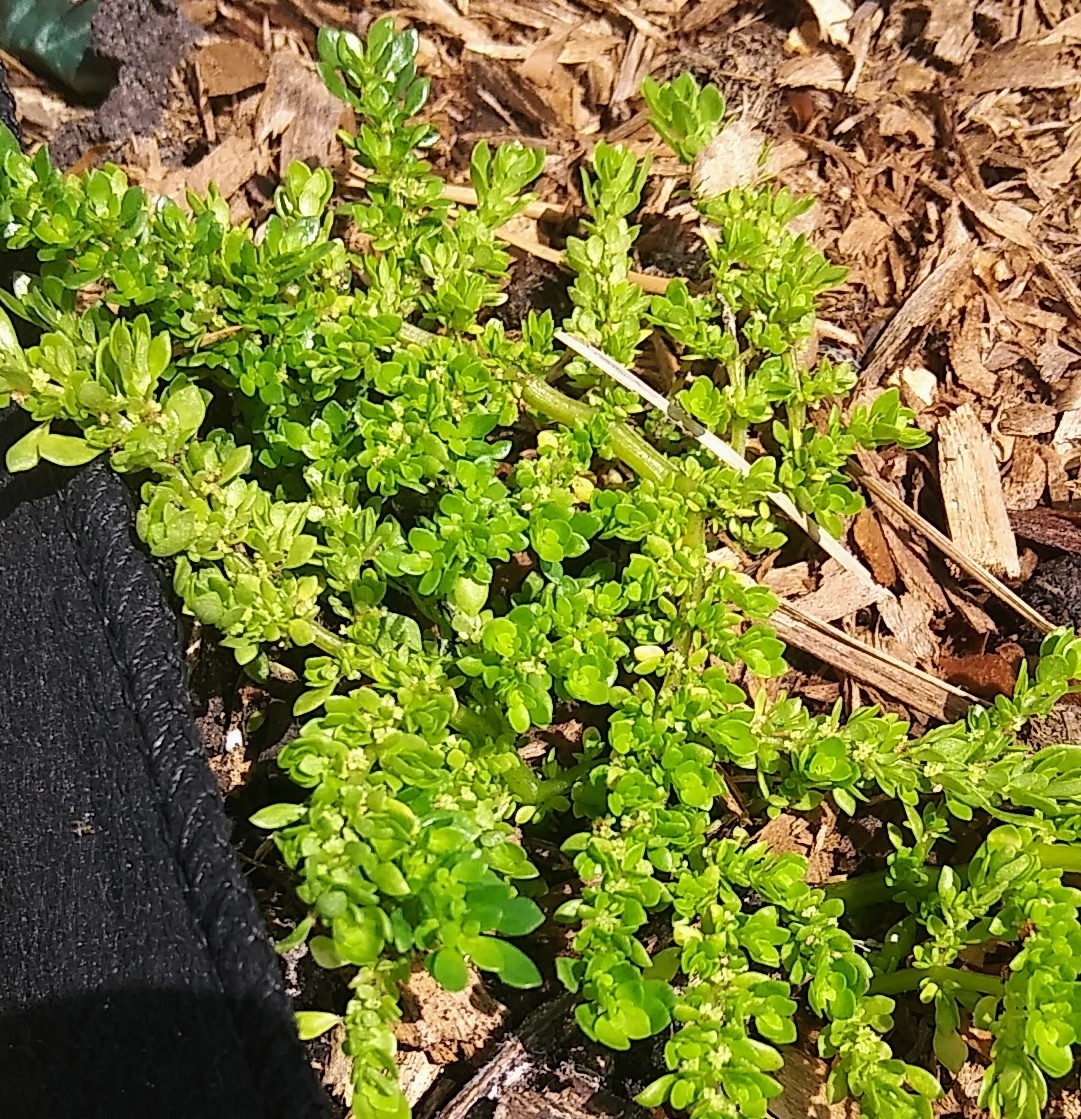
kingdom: Plantae
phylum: Tracheophyta
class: Magnoliopsida
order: Rosales
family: Urticaceae
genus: Pilea
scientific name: Pilea microphylla
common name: Artillery-plant
